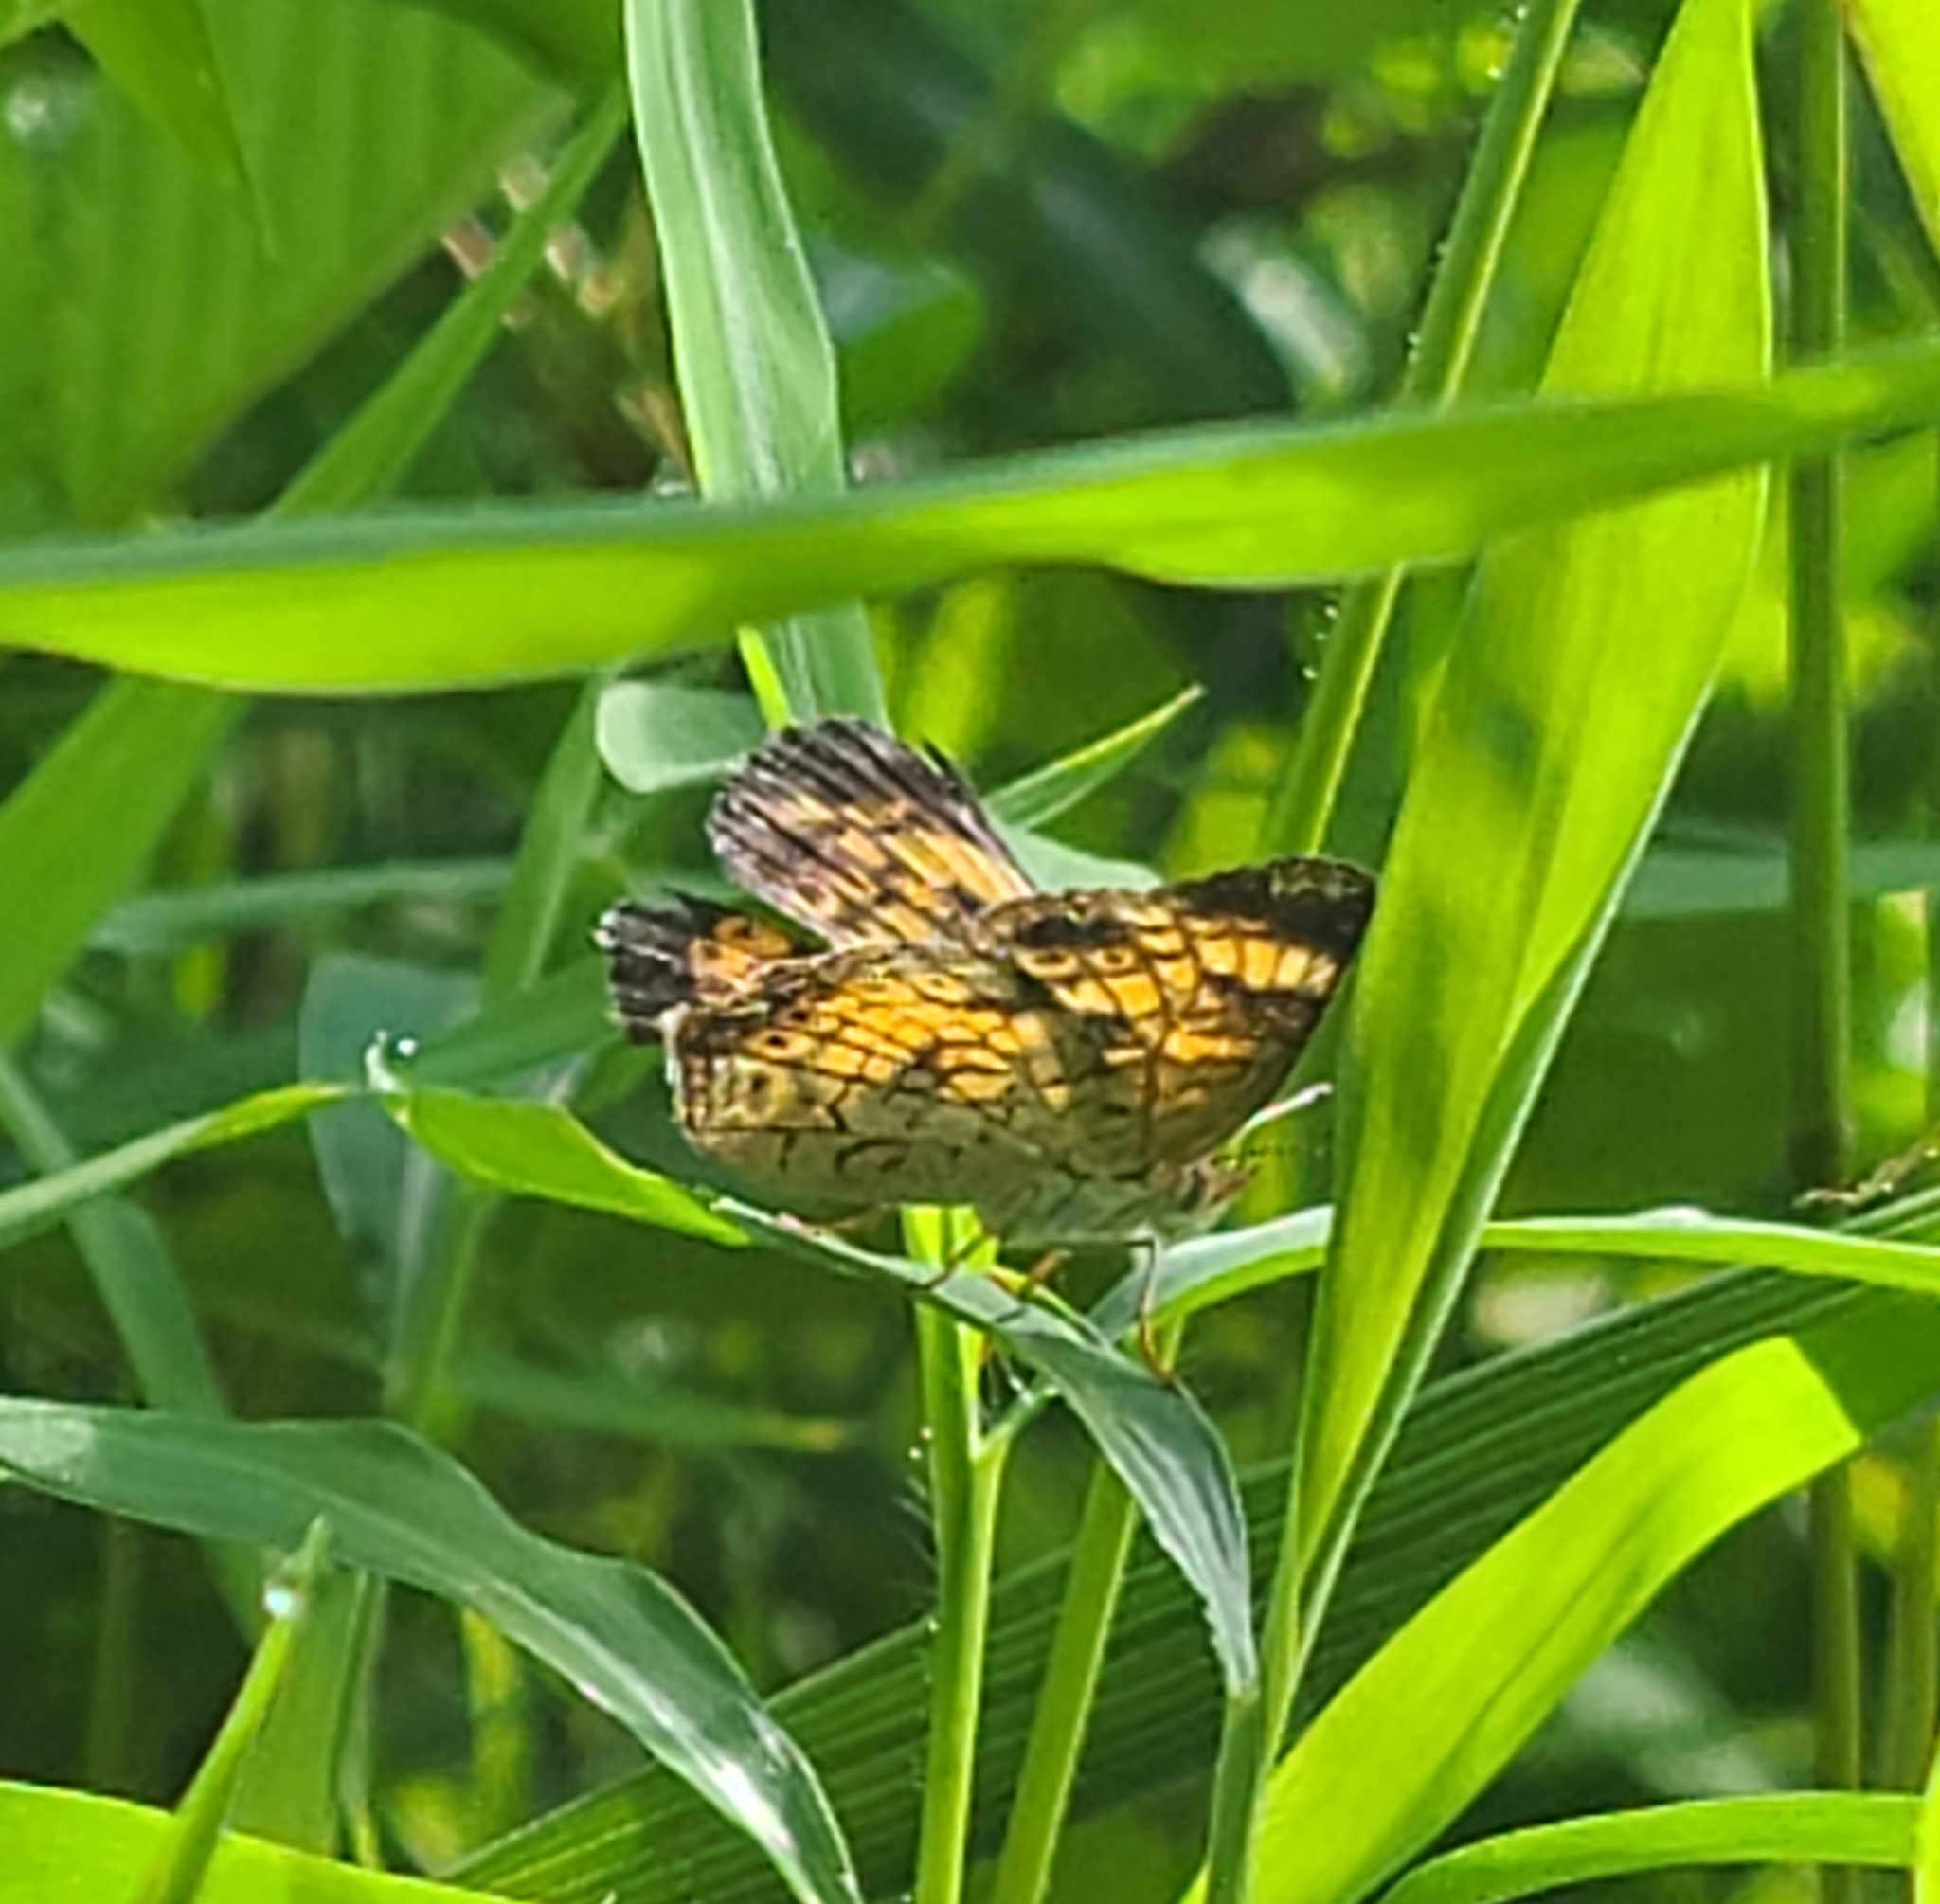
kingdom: Animalia
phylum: Arthropoda
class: Insecta
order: Lepidoptera
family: Nymphalidae
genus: Phyciodes
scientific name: Phyciodes tharos
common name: Pearl crescent
